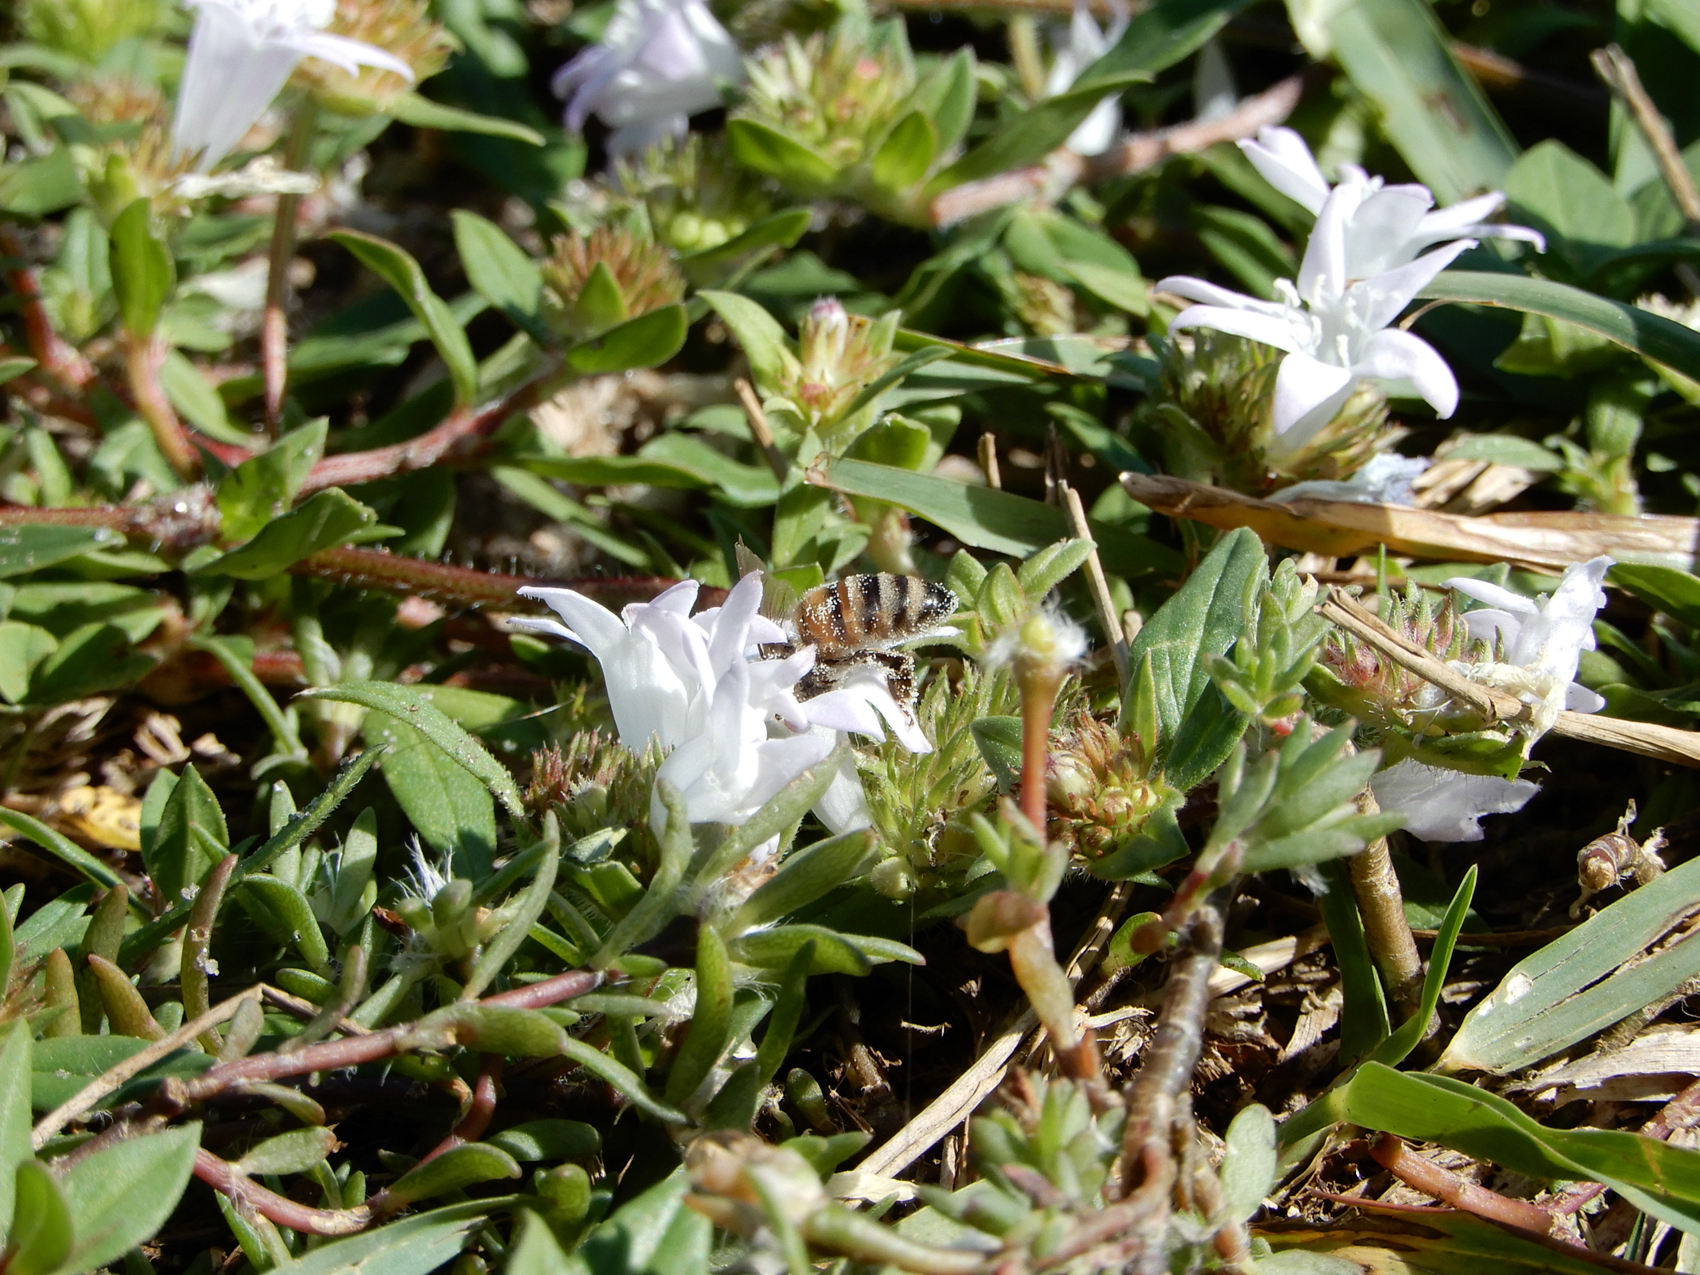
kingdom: Animalia
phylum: Arthropoda
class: Insecta
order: Hymenoptera
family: Apidae
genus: Apis
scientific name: Apis mellifera
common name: Honey bee
